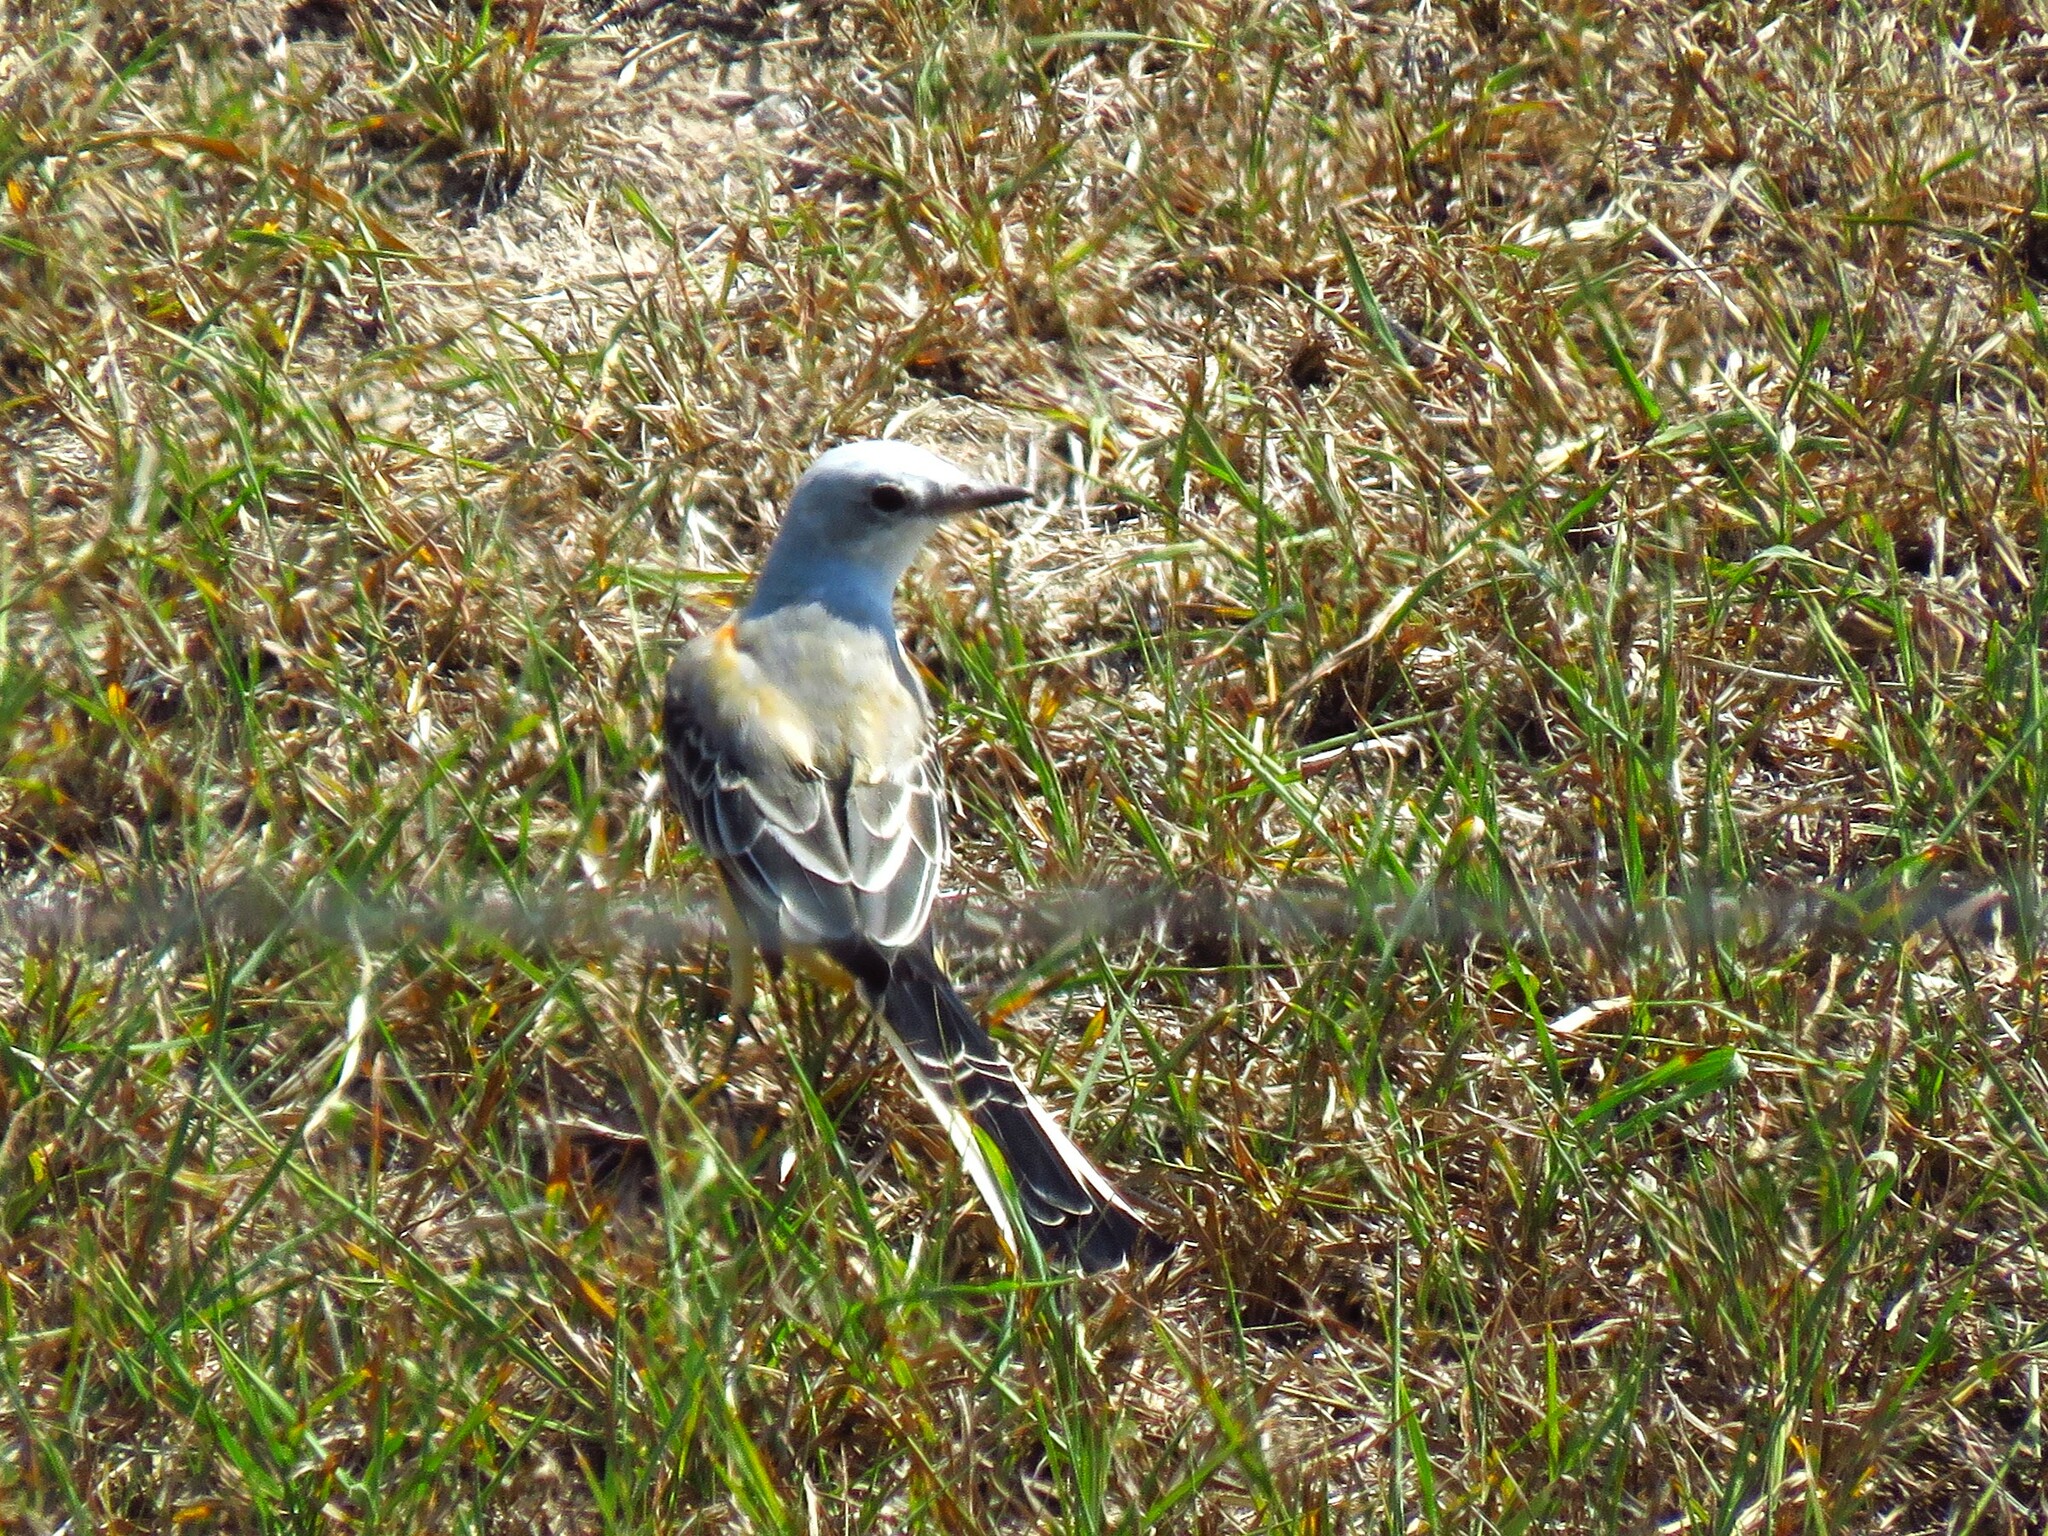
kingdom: Animalia
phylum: Chordata
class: Aves
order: Passeriformes
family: Tyrannidae
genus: Tyrannus
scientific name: Tyrannus forficatus
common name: Scissor-tailed flycatcher
